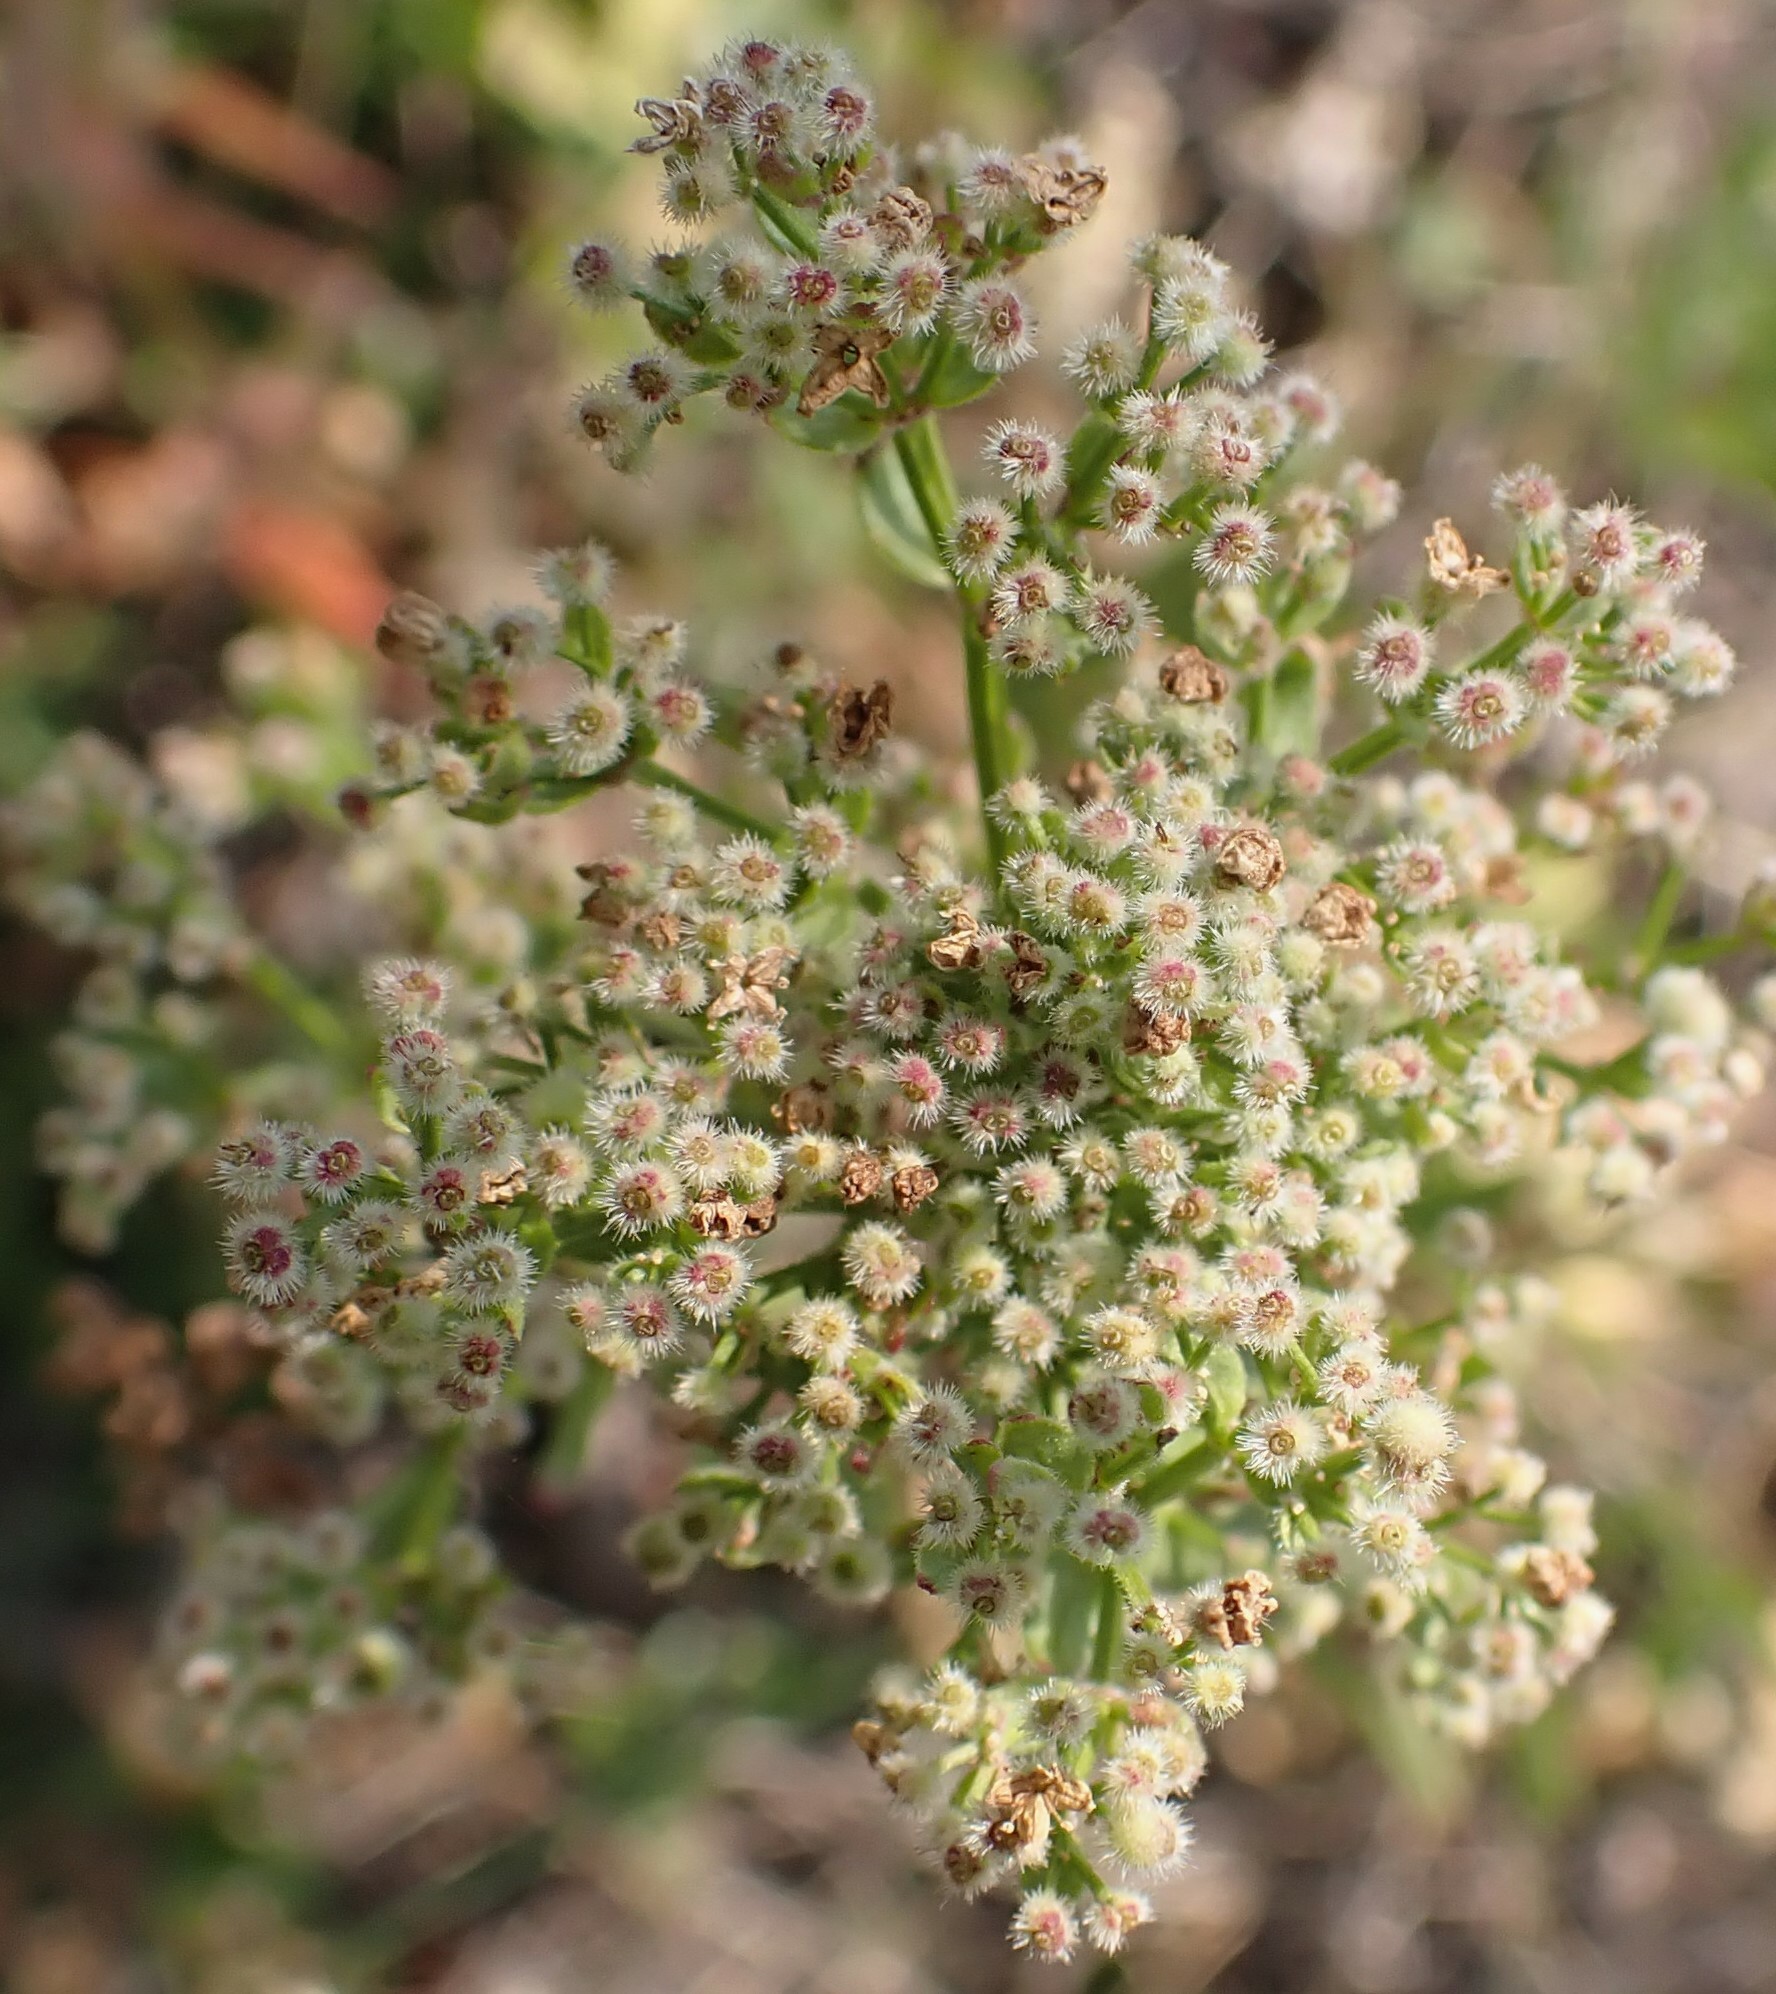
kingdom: Plantae
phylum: Tracheophyta
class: Magnoliopsida
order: Gentianales
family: Rubiaceae
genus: Galium
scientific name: Galium boreale
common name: Northern bedstraw
